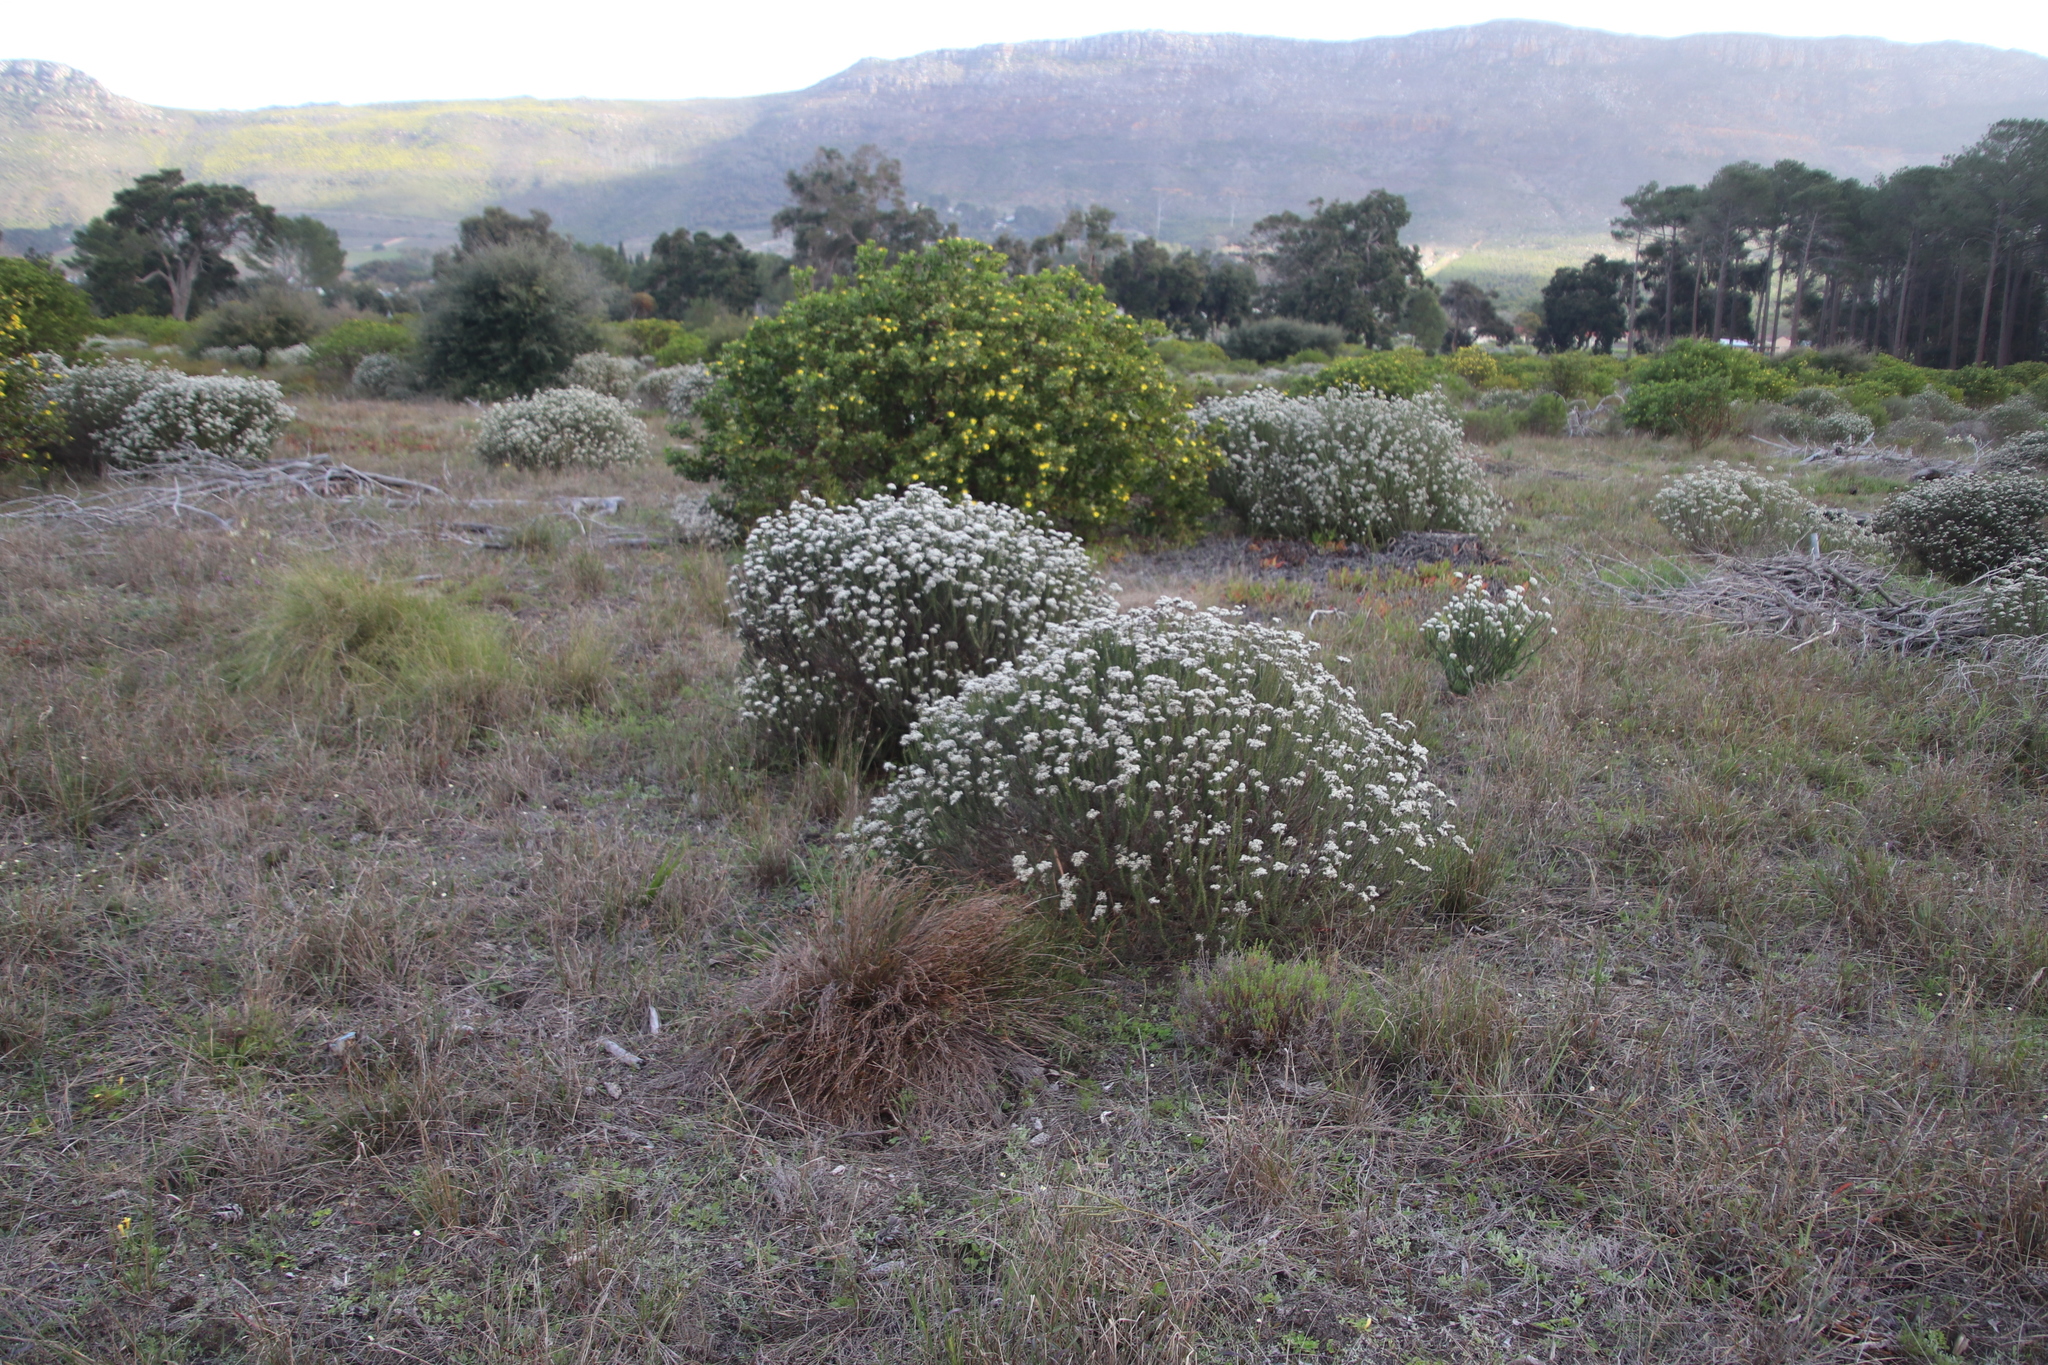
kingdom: Plantae
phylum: Tracheophyta
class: Magnoliopsida
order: Asterales
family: Asteraceae
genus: Metalasia
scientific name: Metalasia densa
